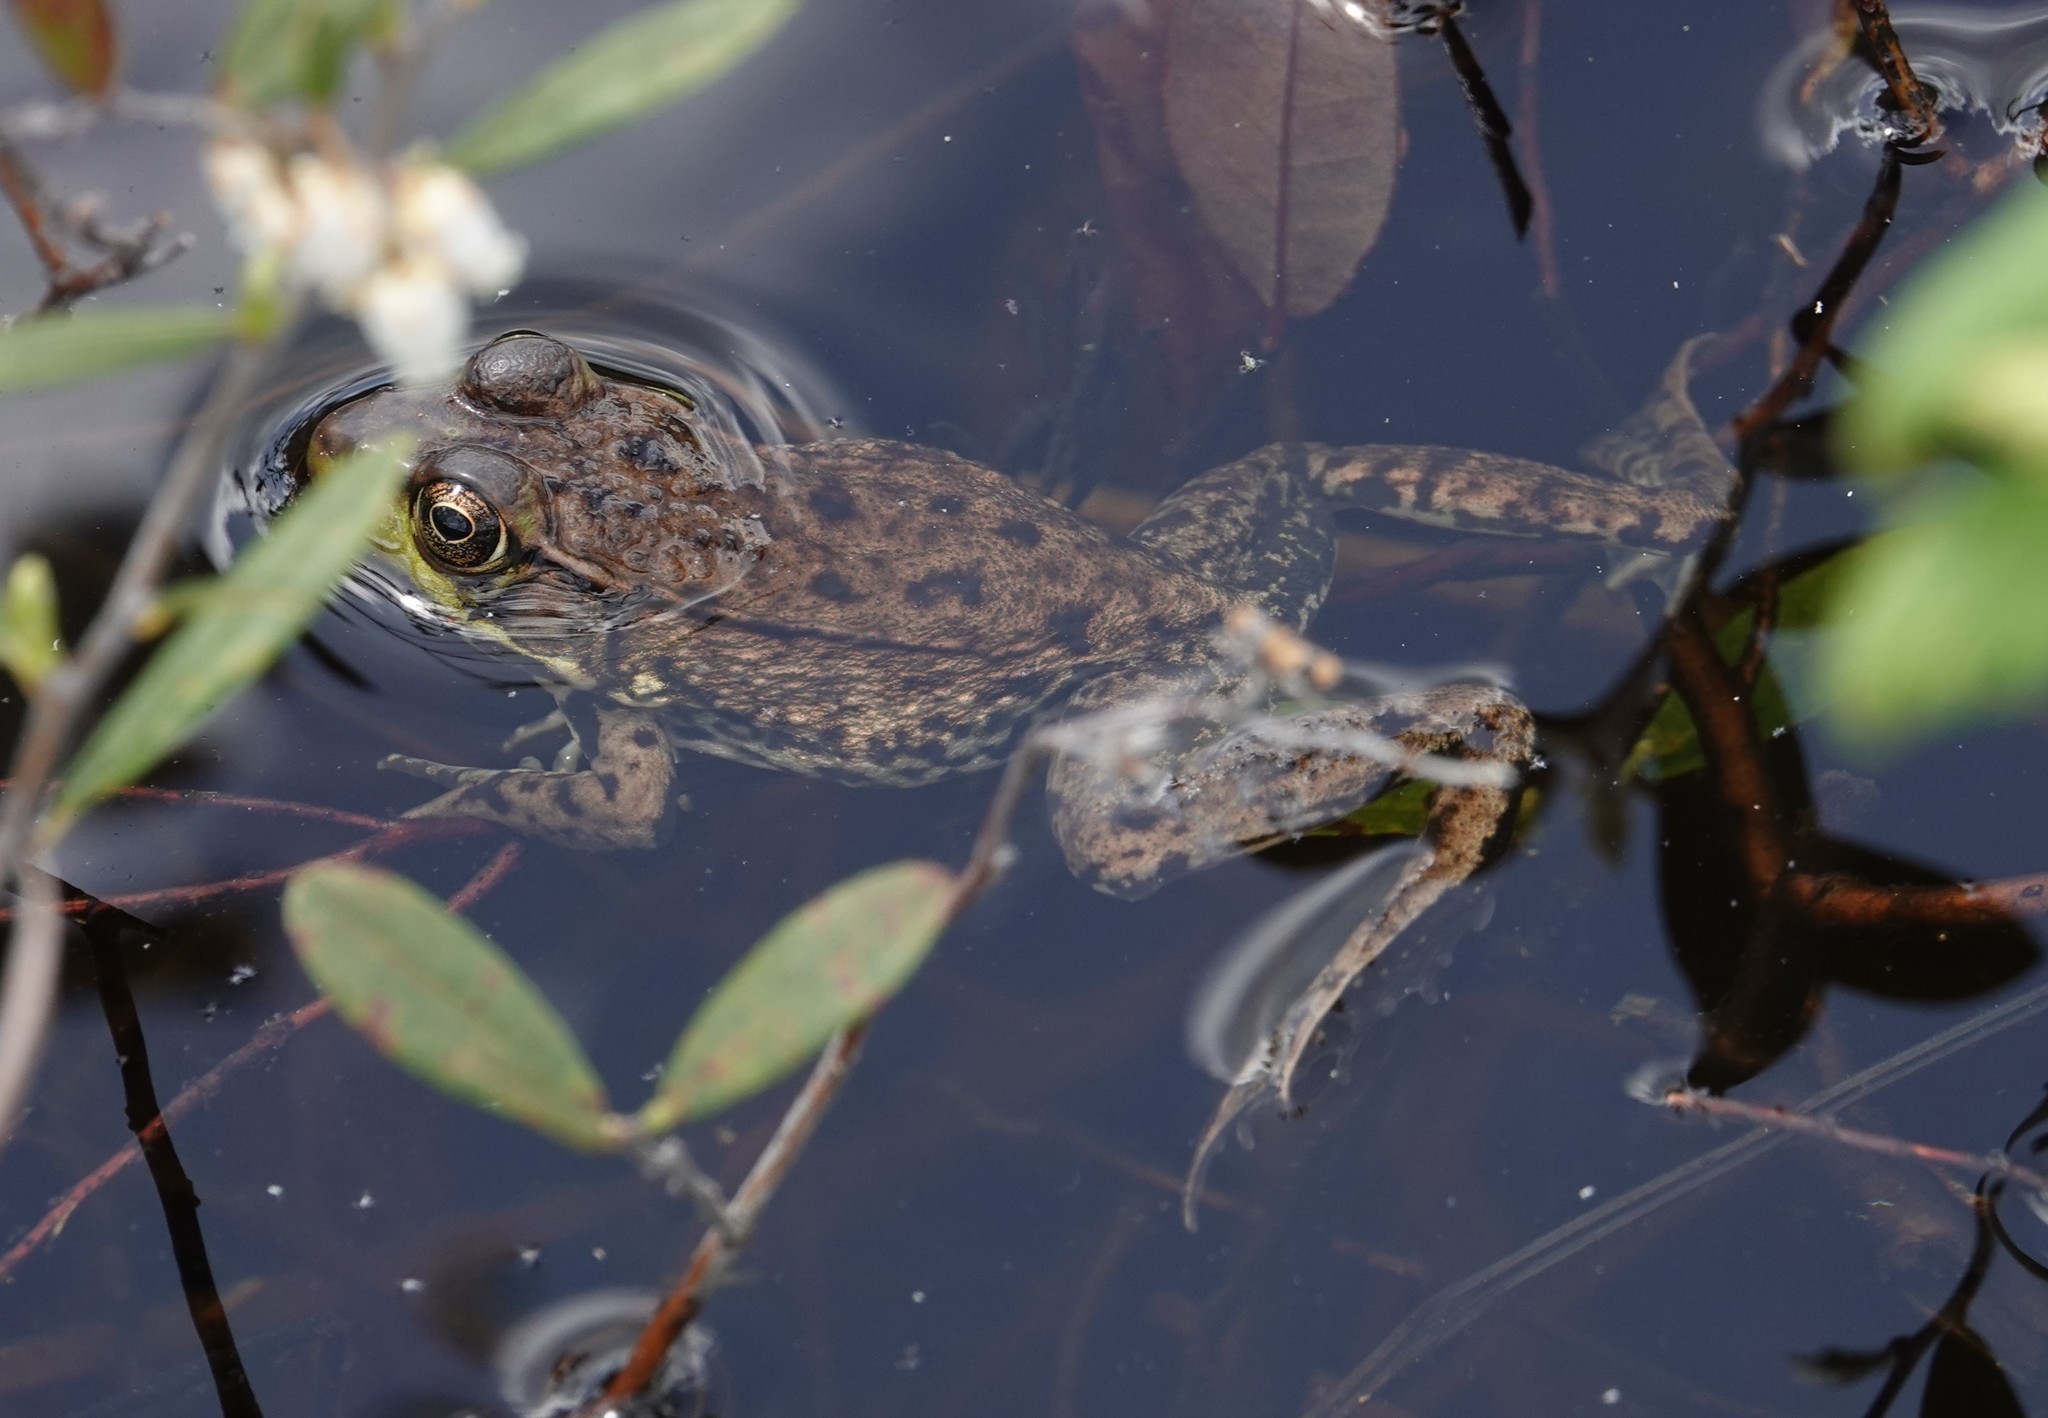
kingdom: Animalia
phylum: Chordata
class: Amphibia
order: Anura
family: Ranidae
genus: Lithobates
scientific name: Lithobates clamitans
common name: Green frog
